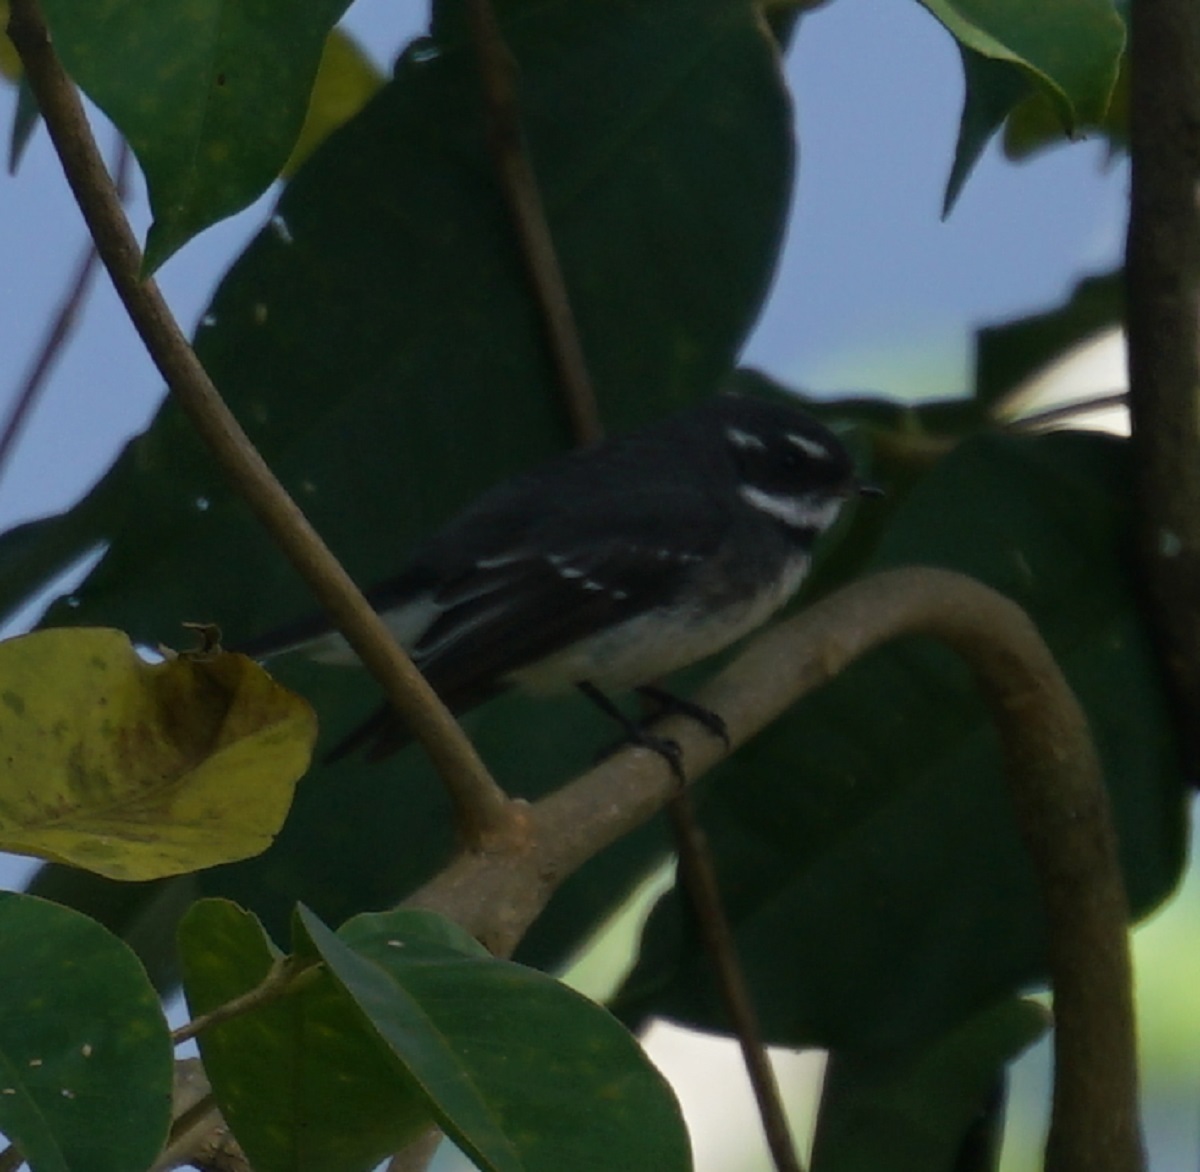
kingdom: Animalia
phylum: Chordata
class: Aves
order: Passeriformes
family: Rhipiduridae
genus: Rhipidura
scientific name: Rhipidura albiscapa
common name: Grey fantail
